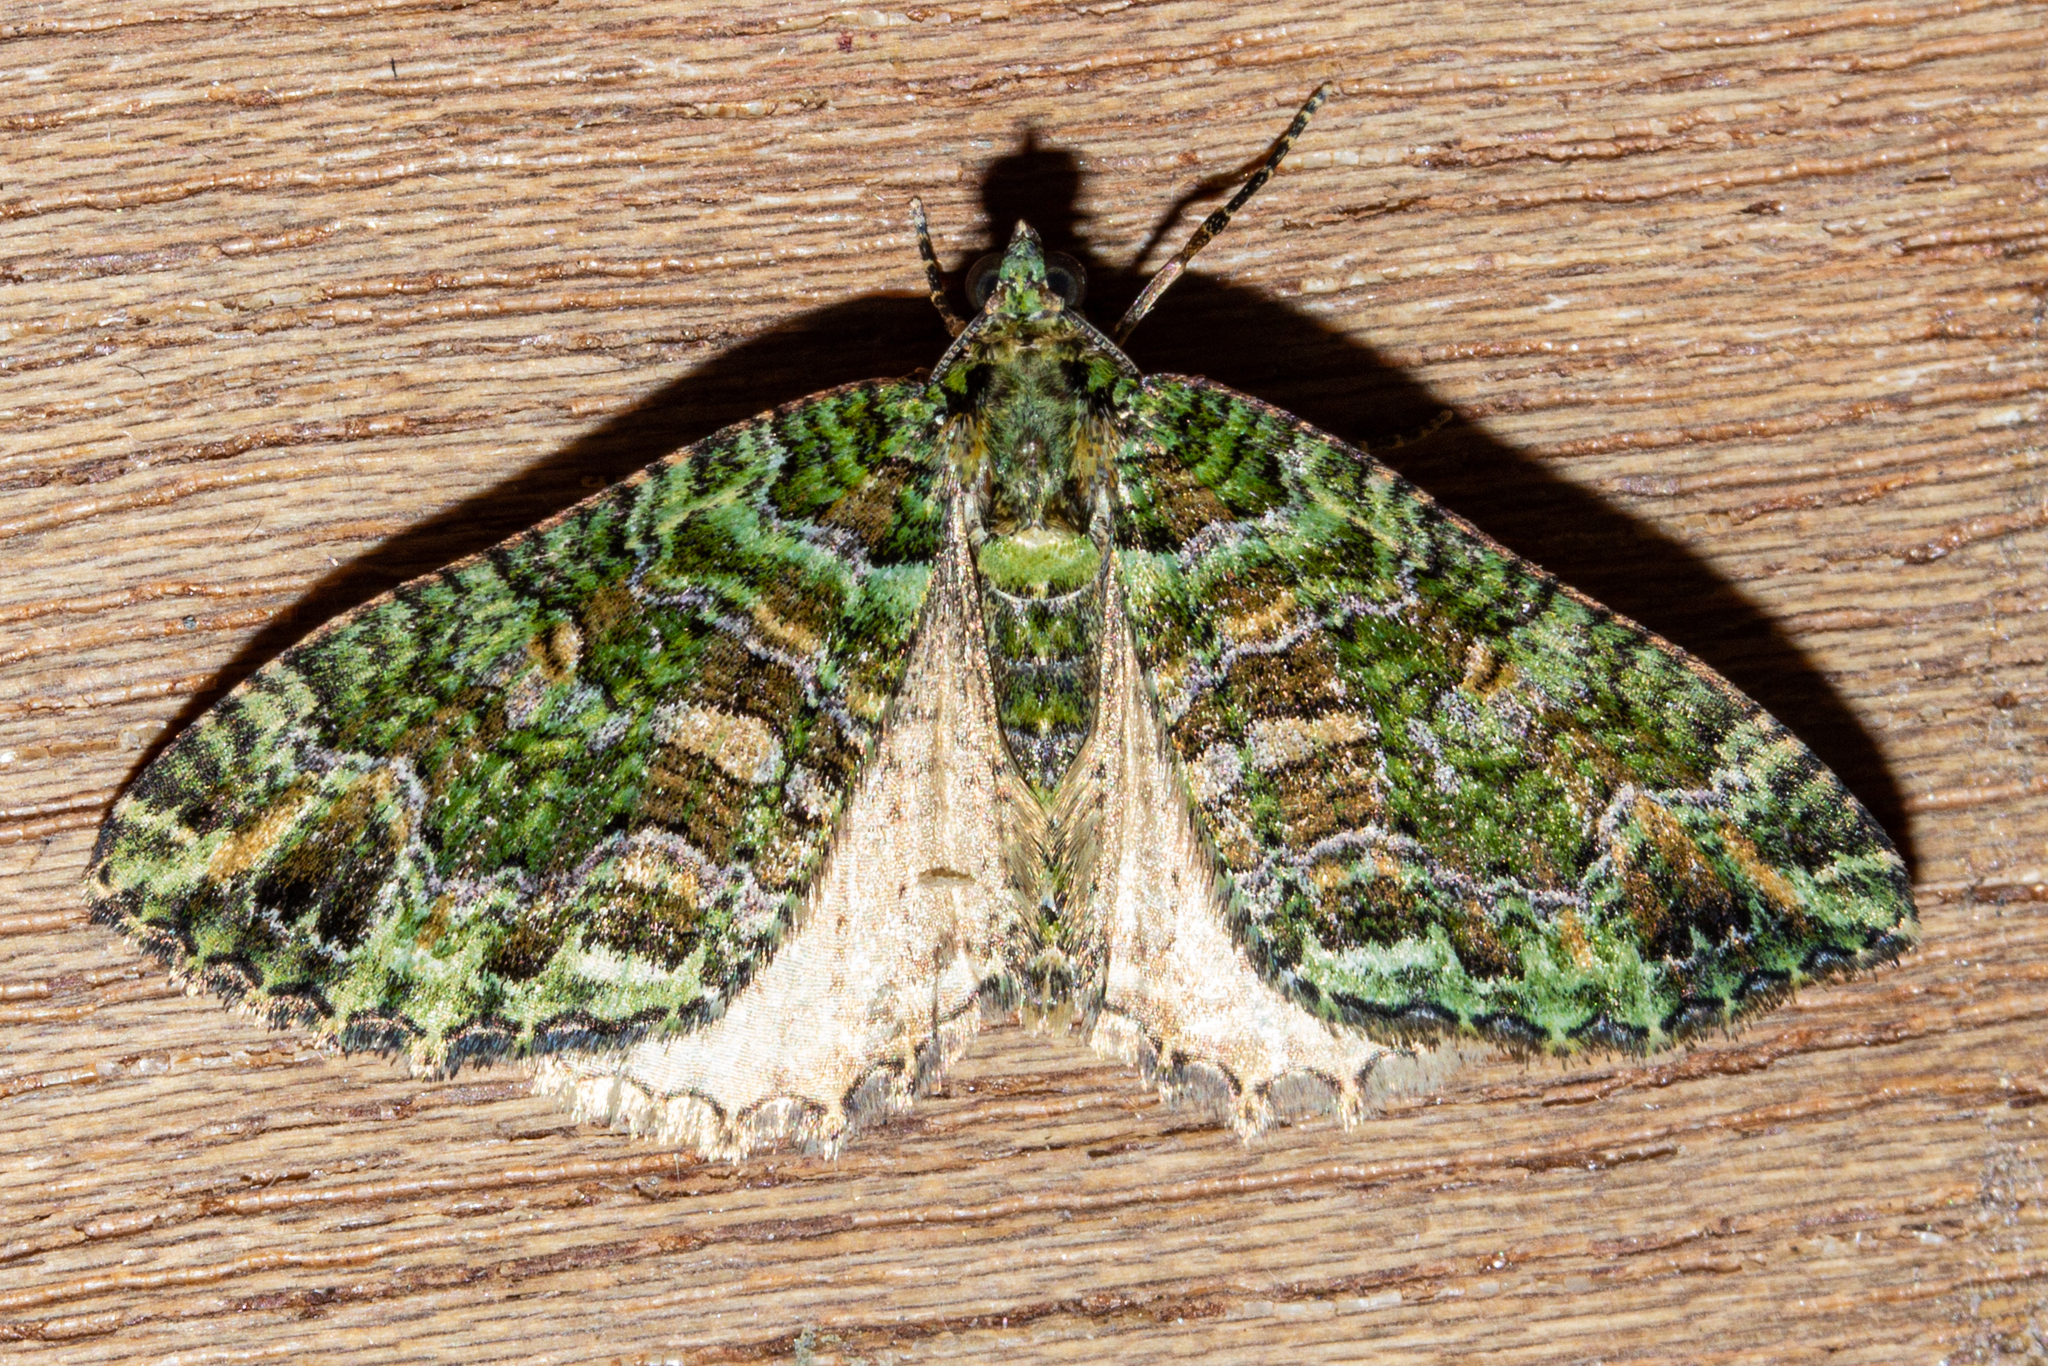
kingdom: Animalia
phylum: Arthropoda
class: Insecta
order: Lepidoptera
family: Geometridae
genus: Austrocidaria
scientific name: Austrocidaria similata
